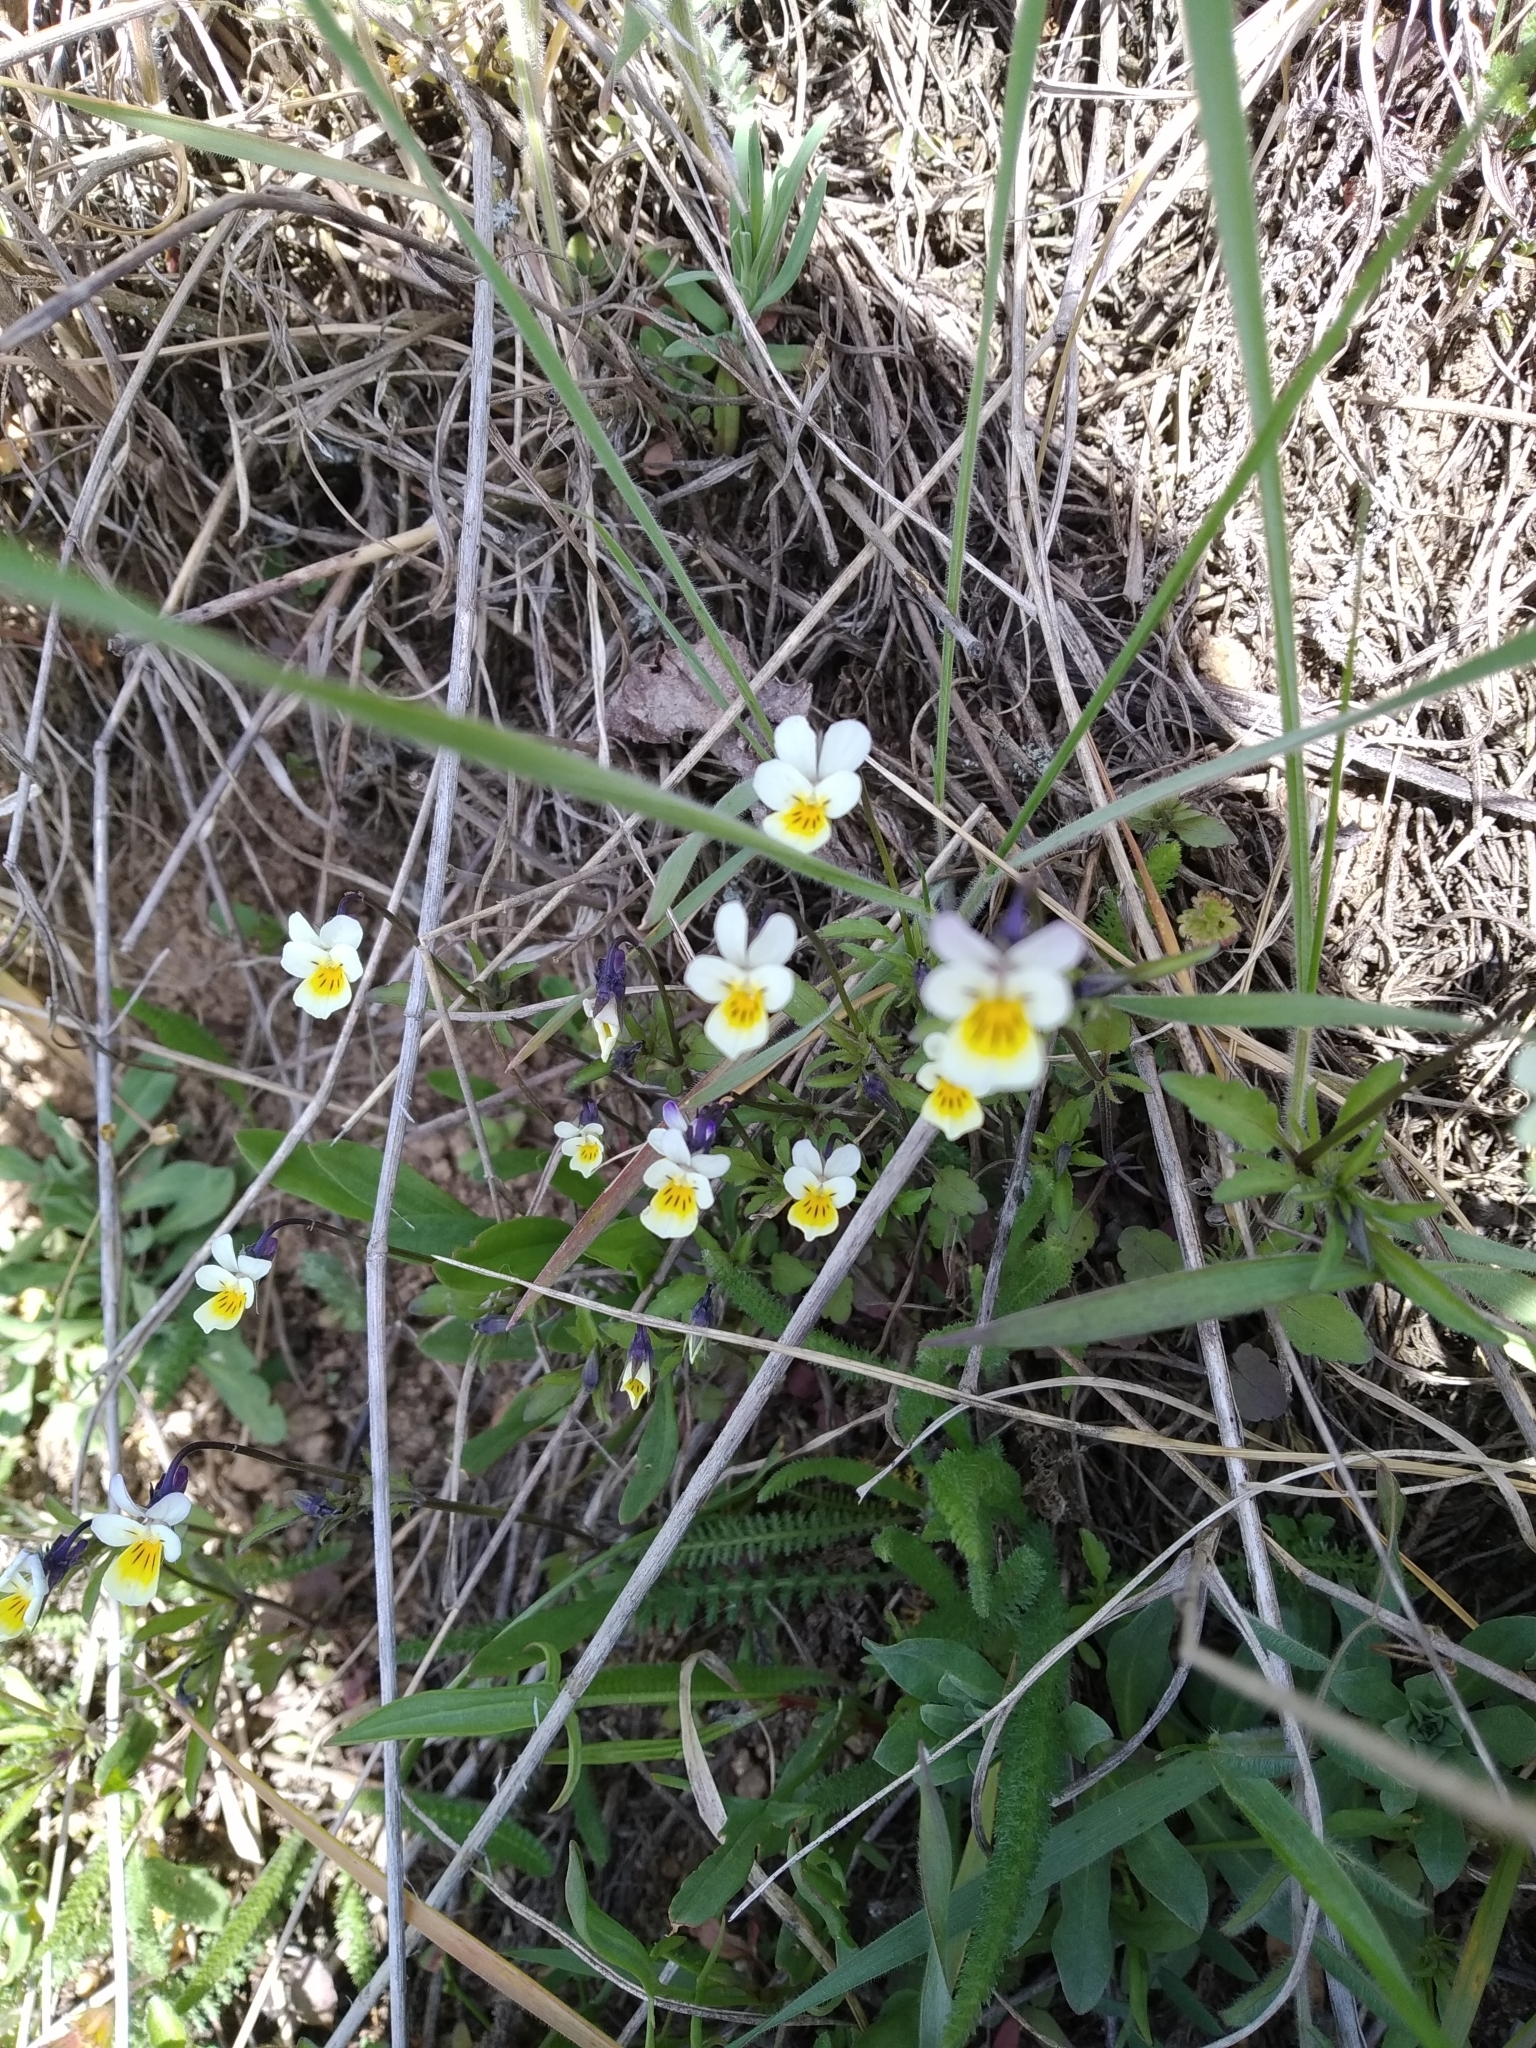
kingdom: Plantae
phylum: Tracheophyta
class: Magnoliopsida
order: Malpighiales
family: Violaceae
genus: Viola
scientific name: Viola arvensis
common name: Field pansy
